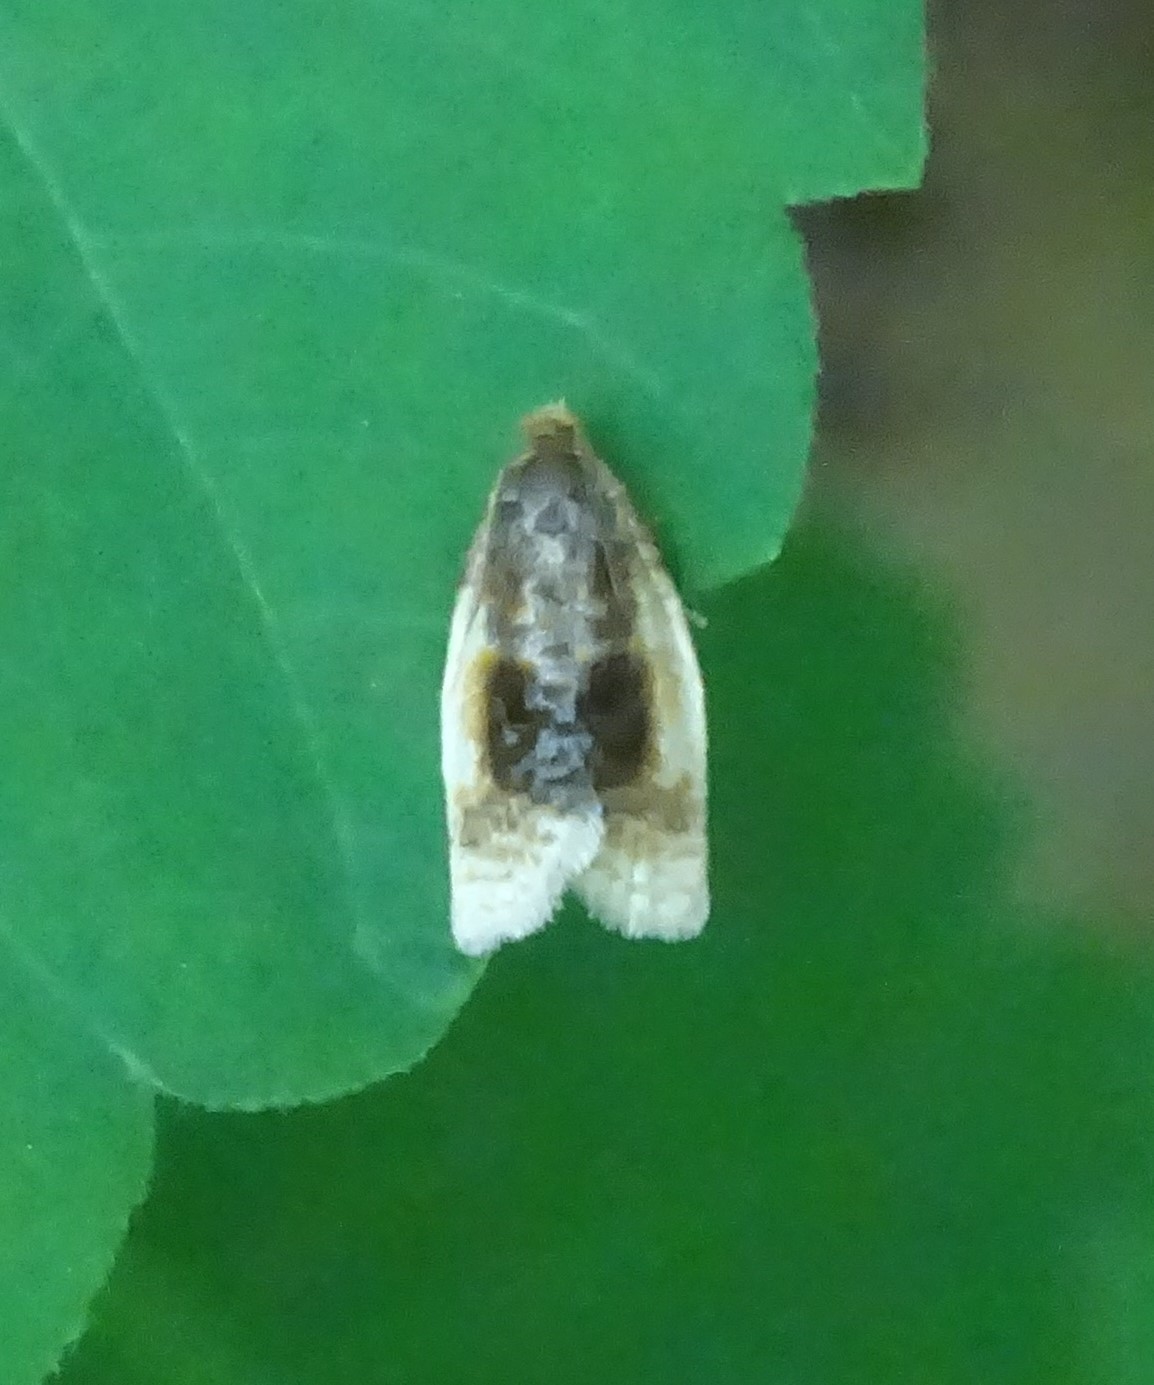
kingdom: Animalia
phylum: Arthropoda
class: Insecta
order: Lepidoptera
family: Tortricidae
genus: Clepsis
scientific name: Clepsis melaleucanus
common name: American apple tortrix
